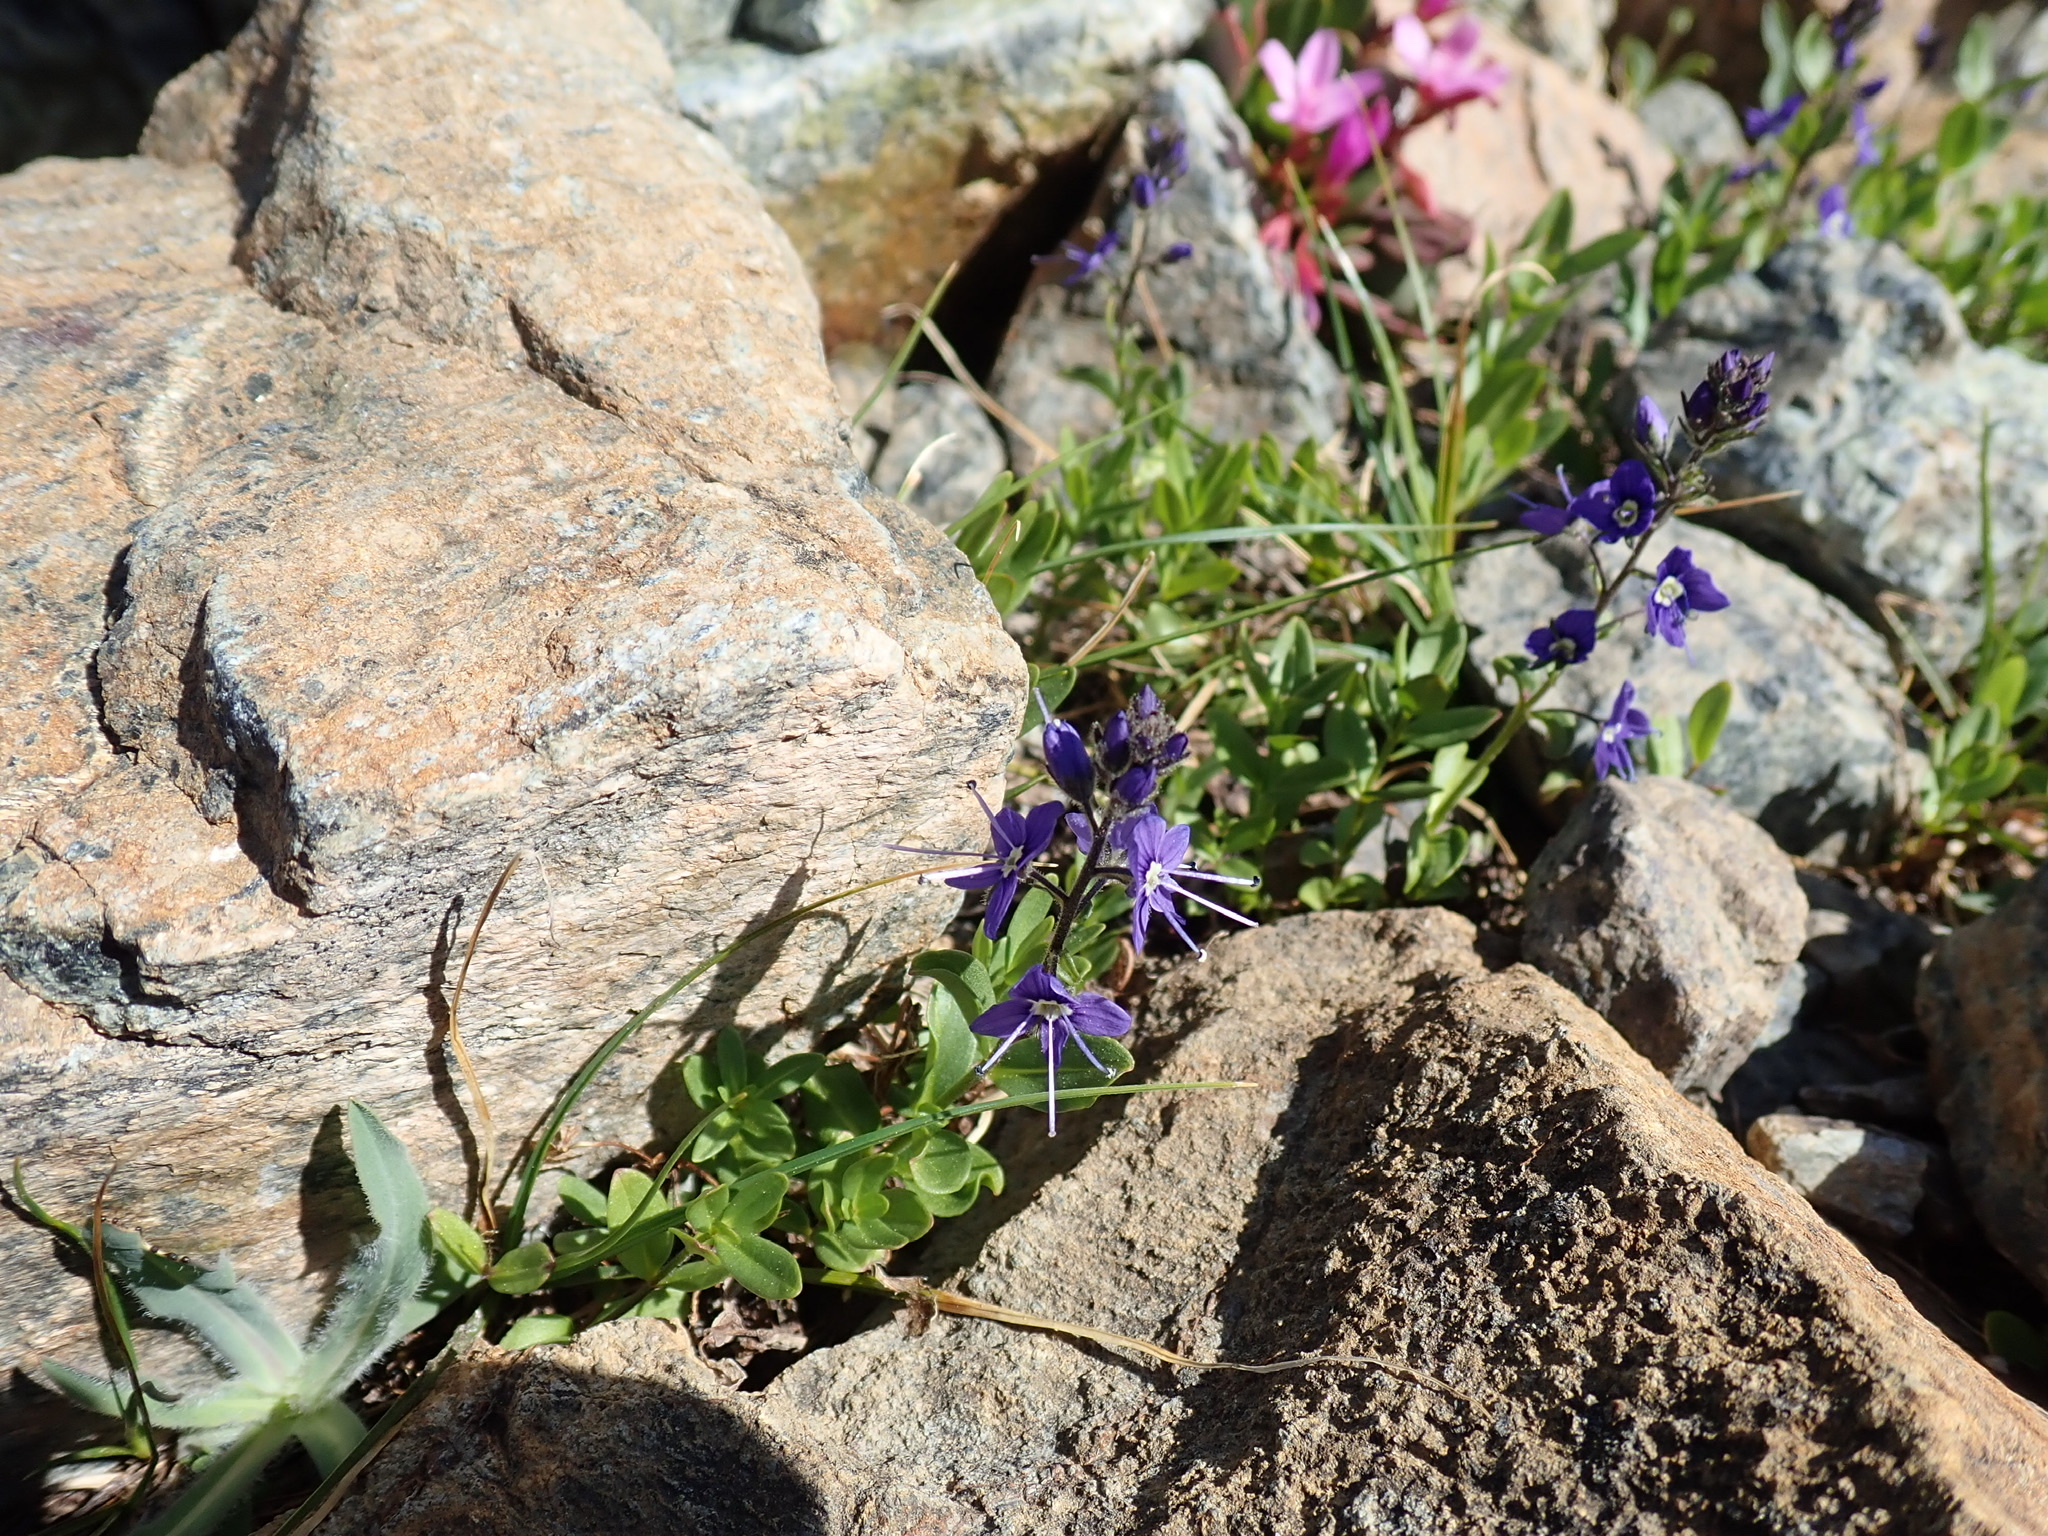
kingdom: Plantae
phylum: Tracheophyta
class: Magnoliopsida
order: Lamiales
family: Plantaginaceae
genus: Veronica
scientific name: Veronica cusickii
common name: Cusick's speedwell
